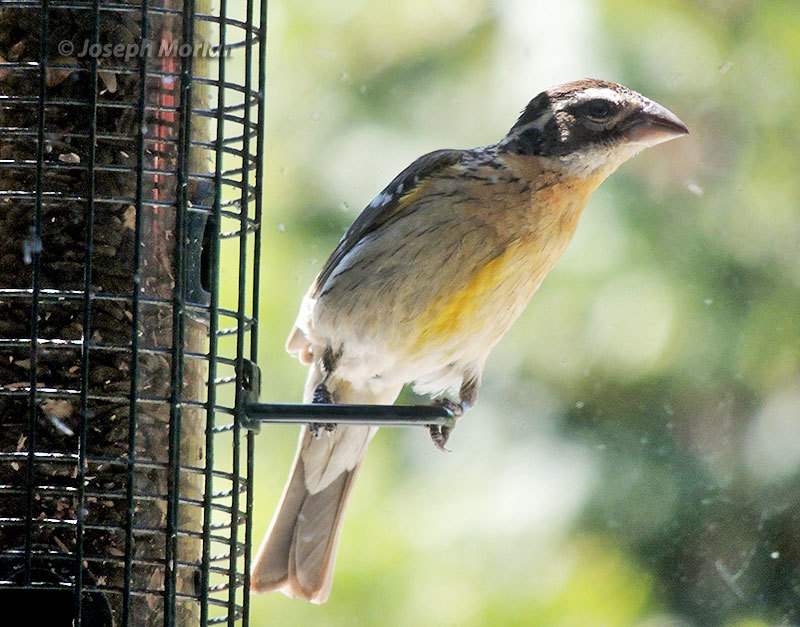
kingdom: Animalia
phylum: Chordata
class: Aves
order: Passeriformes
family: Cardinalidae
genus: Pheucticus
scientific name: Pheucticus melanocephalus
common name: Black-headed grosbeak
